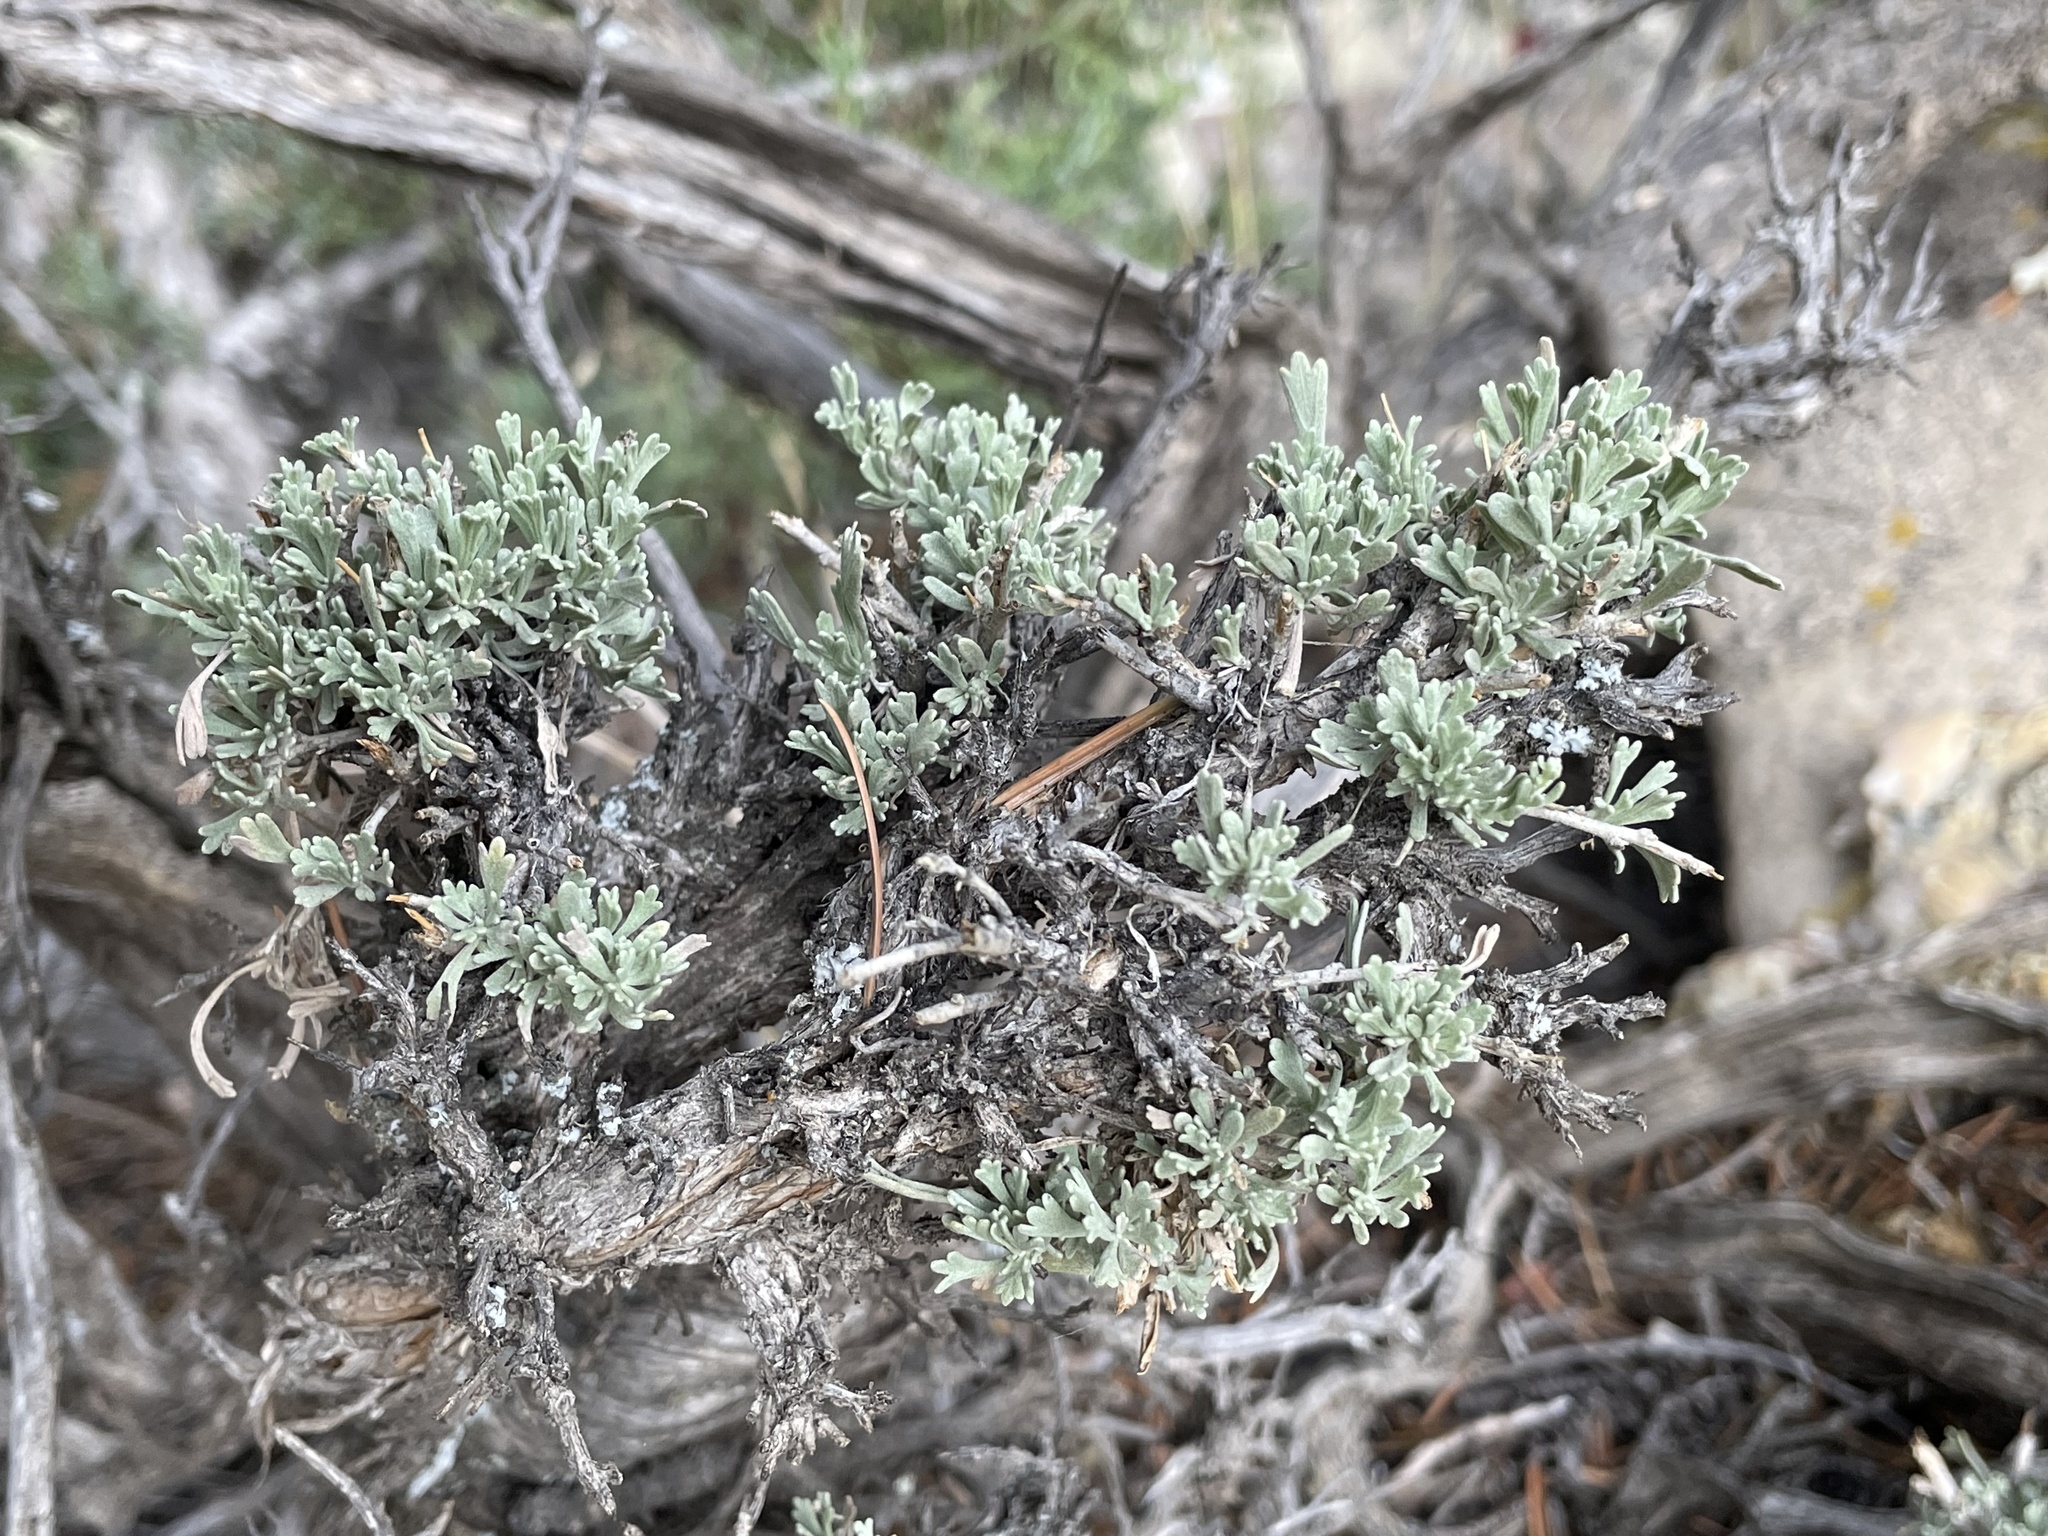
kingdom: Plantae
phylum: Tracheophyta
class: Magnoliopsida
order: Asterales
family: Asteraceae
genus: Artemisia
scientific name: Artemisia tridentata
